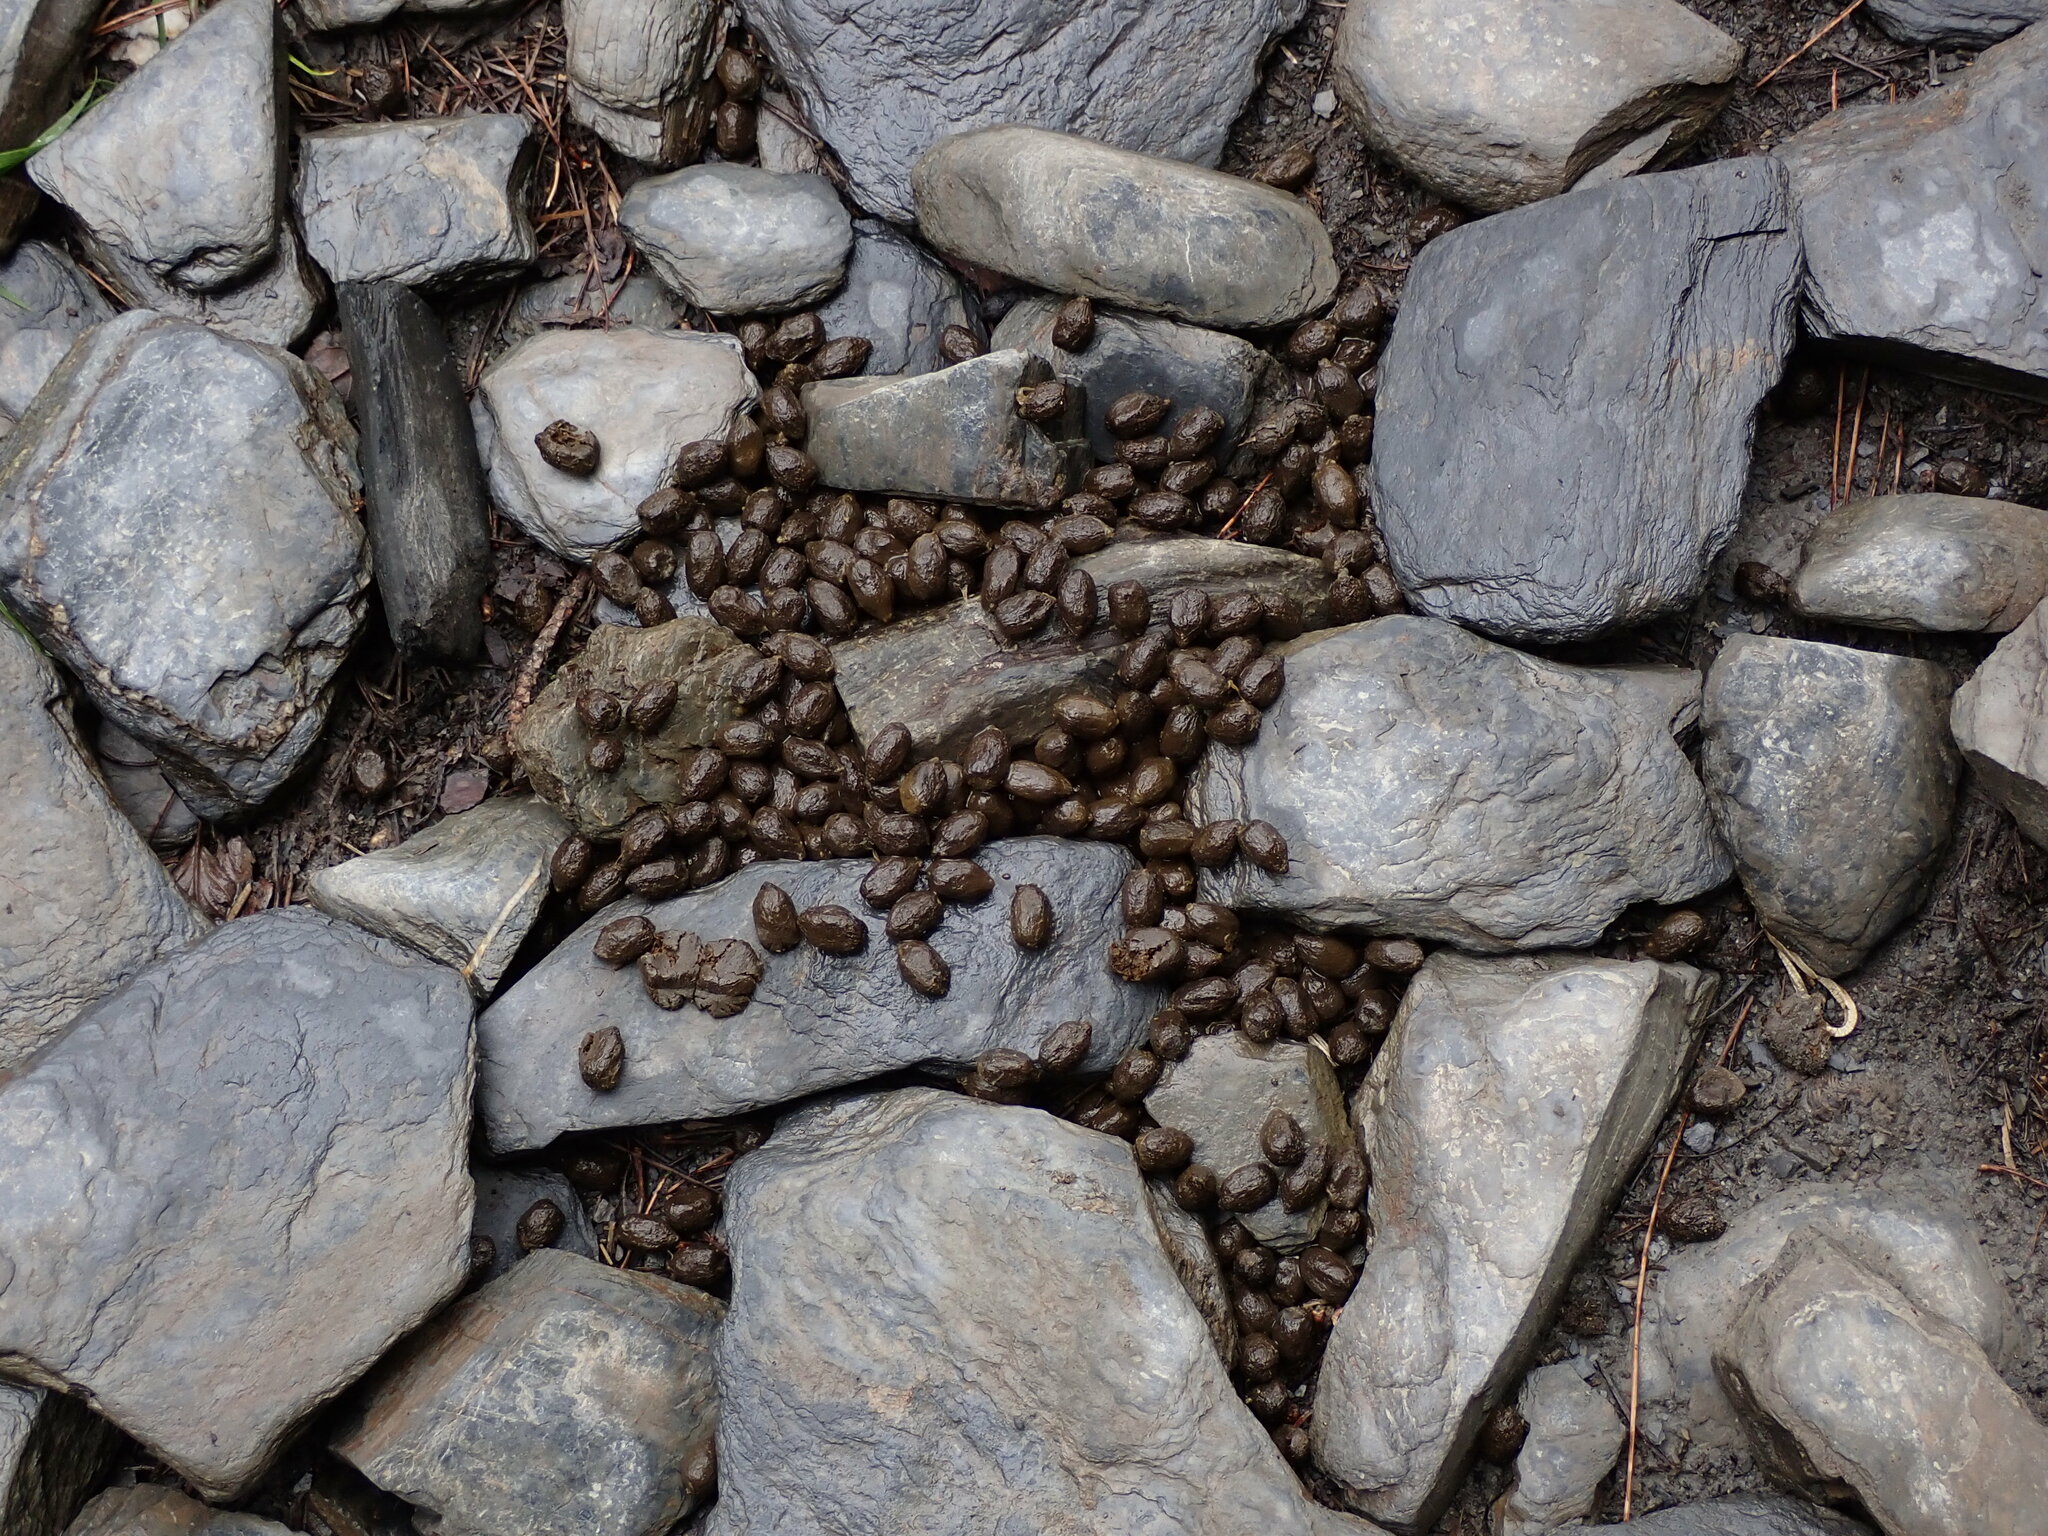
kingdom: Animalia
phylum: Chordata
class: Mammalia
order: Artiodactyla
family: Bovidae
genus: Capricornis
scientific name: Capricornis swinhoei
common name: Formosan serow
